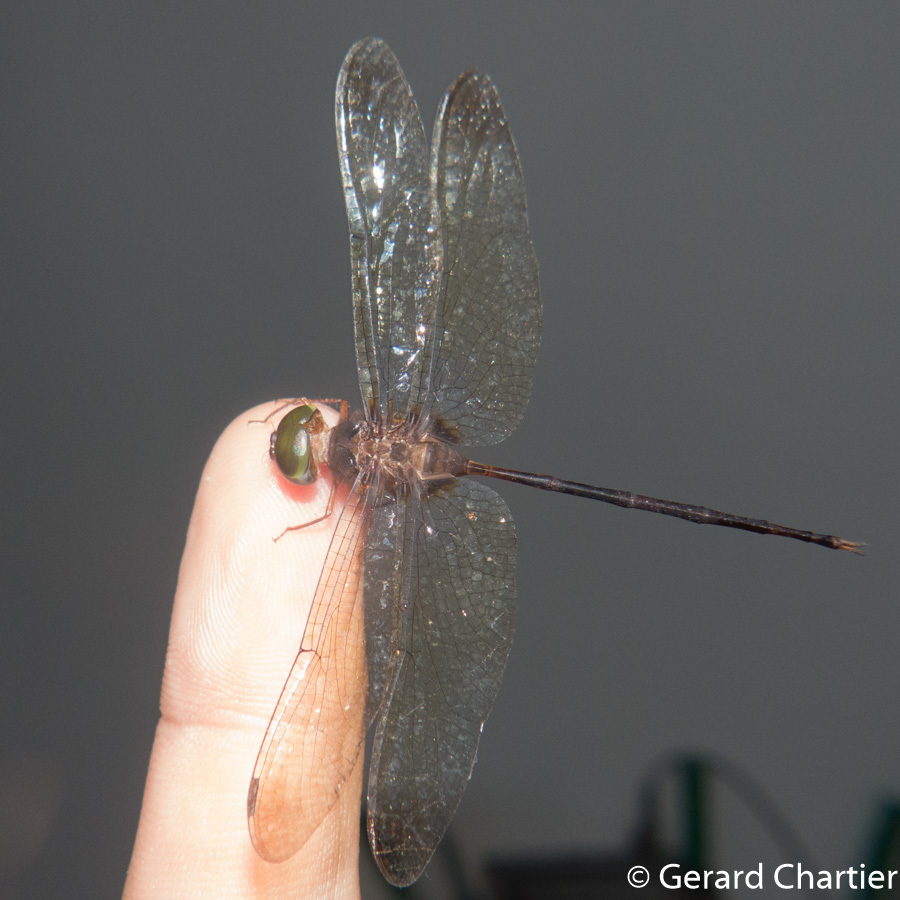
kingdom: Animalia
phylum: Arthropoda
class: Insecta
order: Odonata
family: Libellulidae
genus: Zyxomma
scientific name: Zyxomma petiolatum
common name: Dingy dusk-darter
